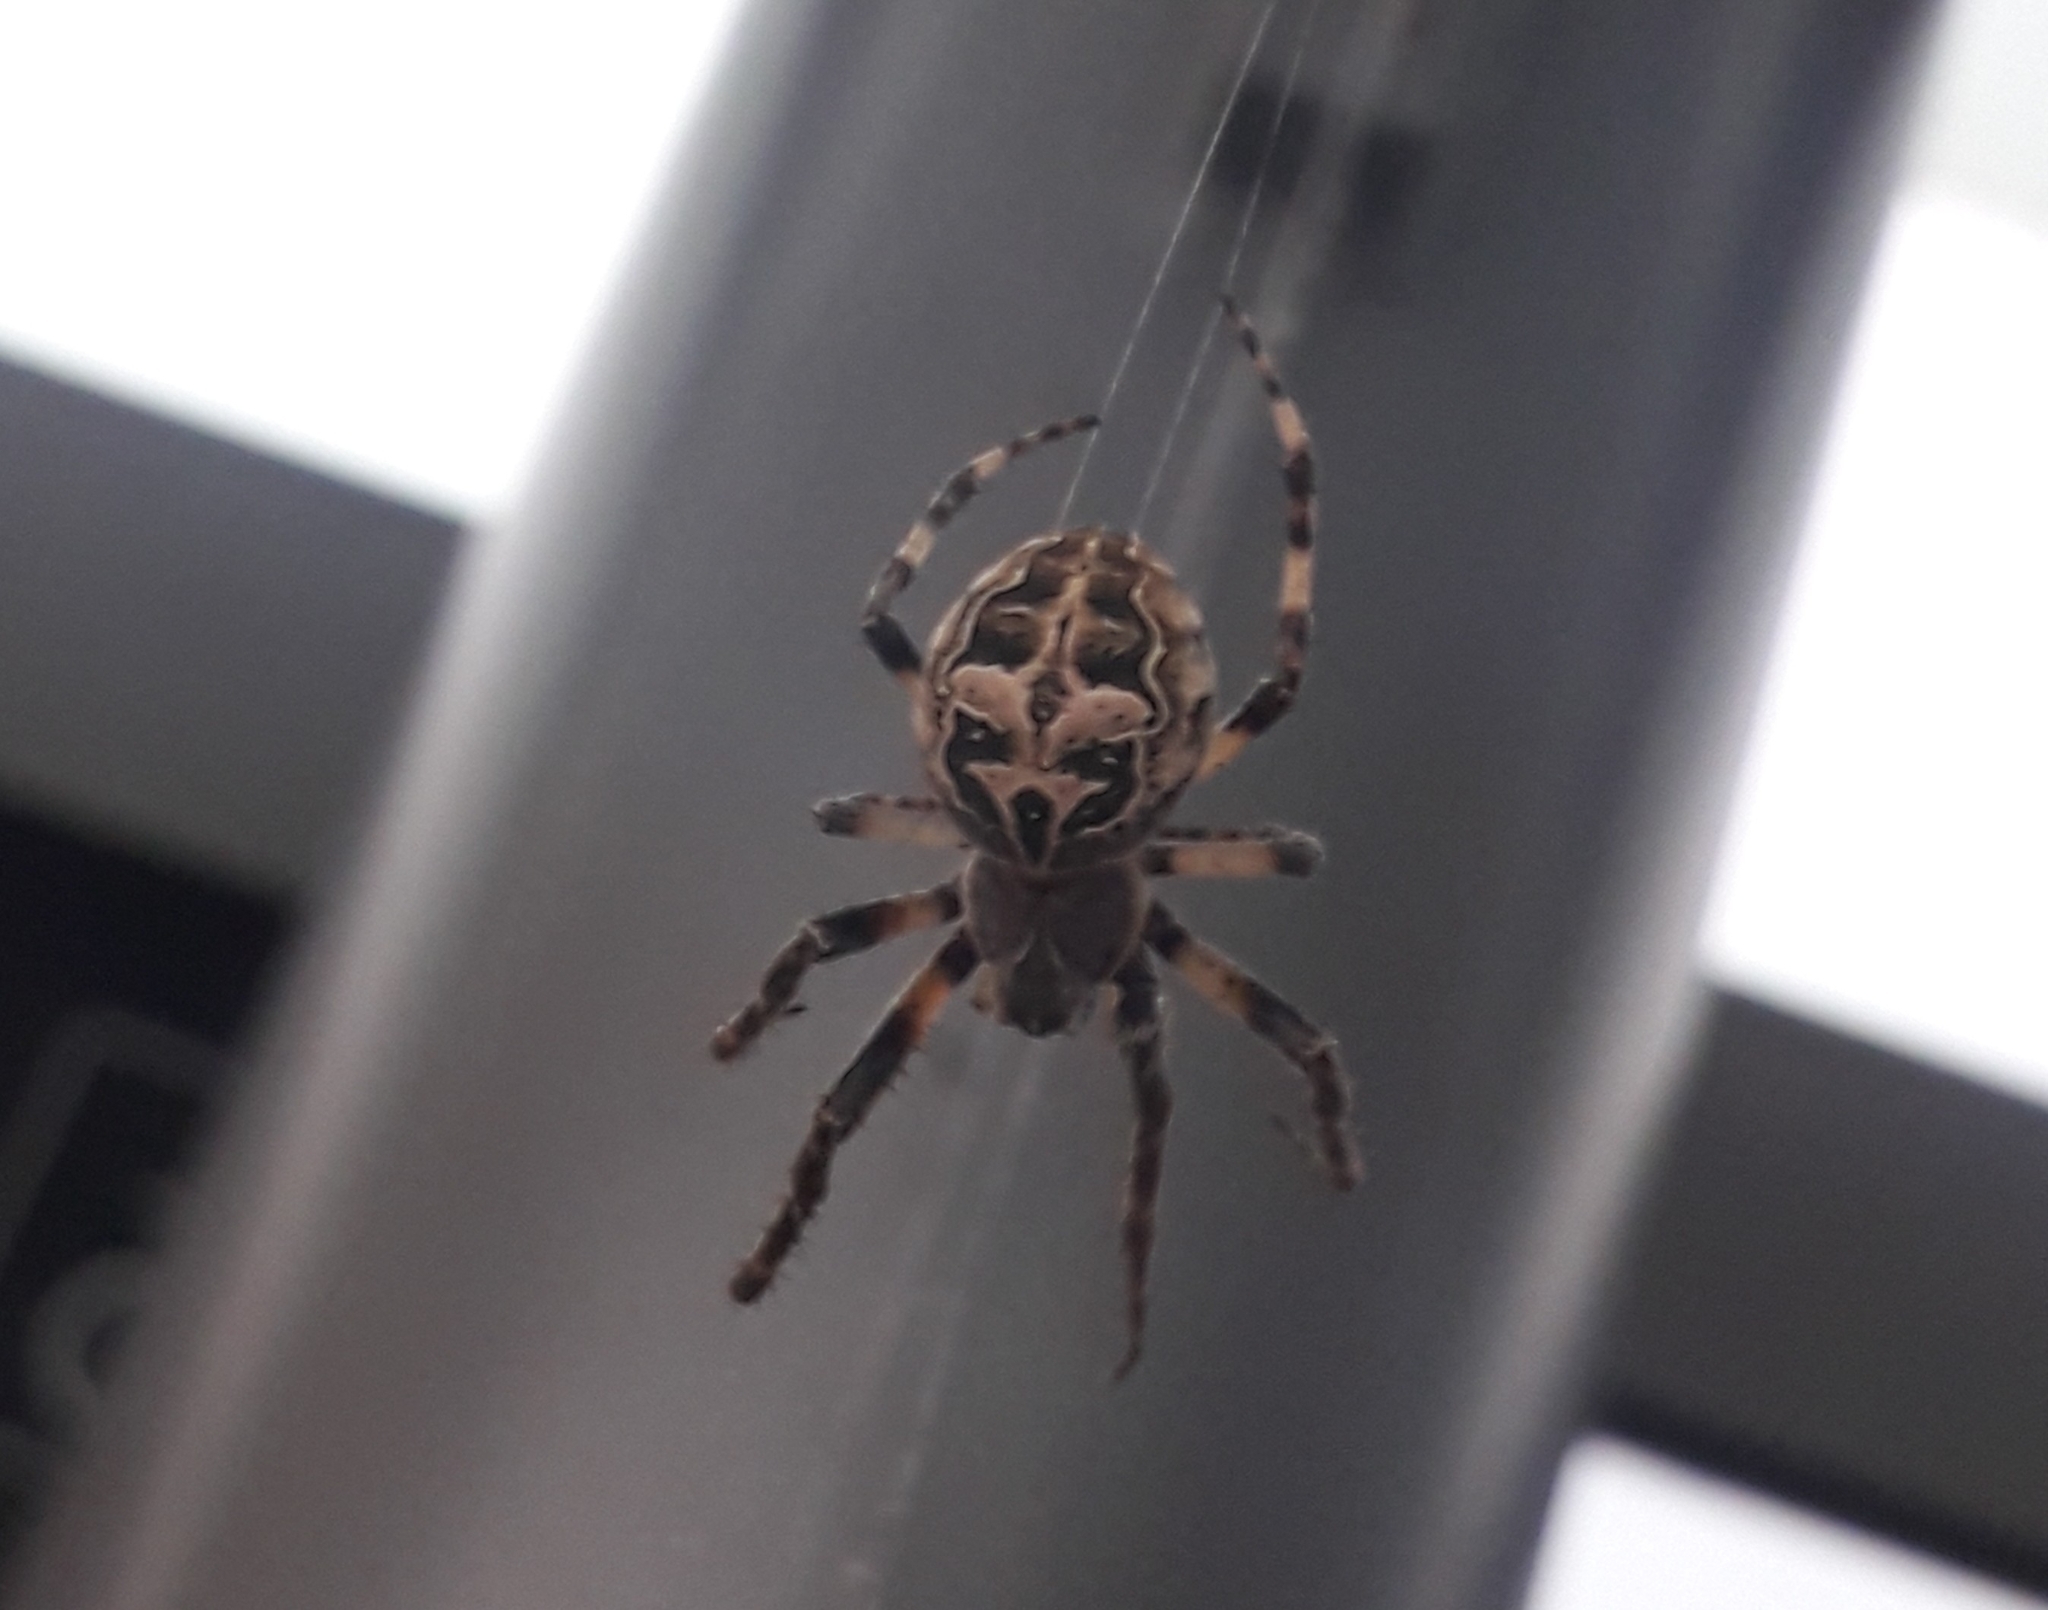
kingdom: Animalia
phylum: Arthropoda
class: Arachnida
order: Araneae
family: Araneidae
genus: Larinioides
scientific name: Larinioides sclopetarius
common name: Bridge orbweaver
